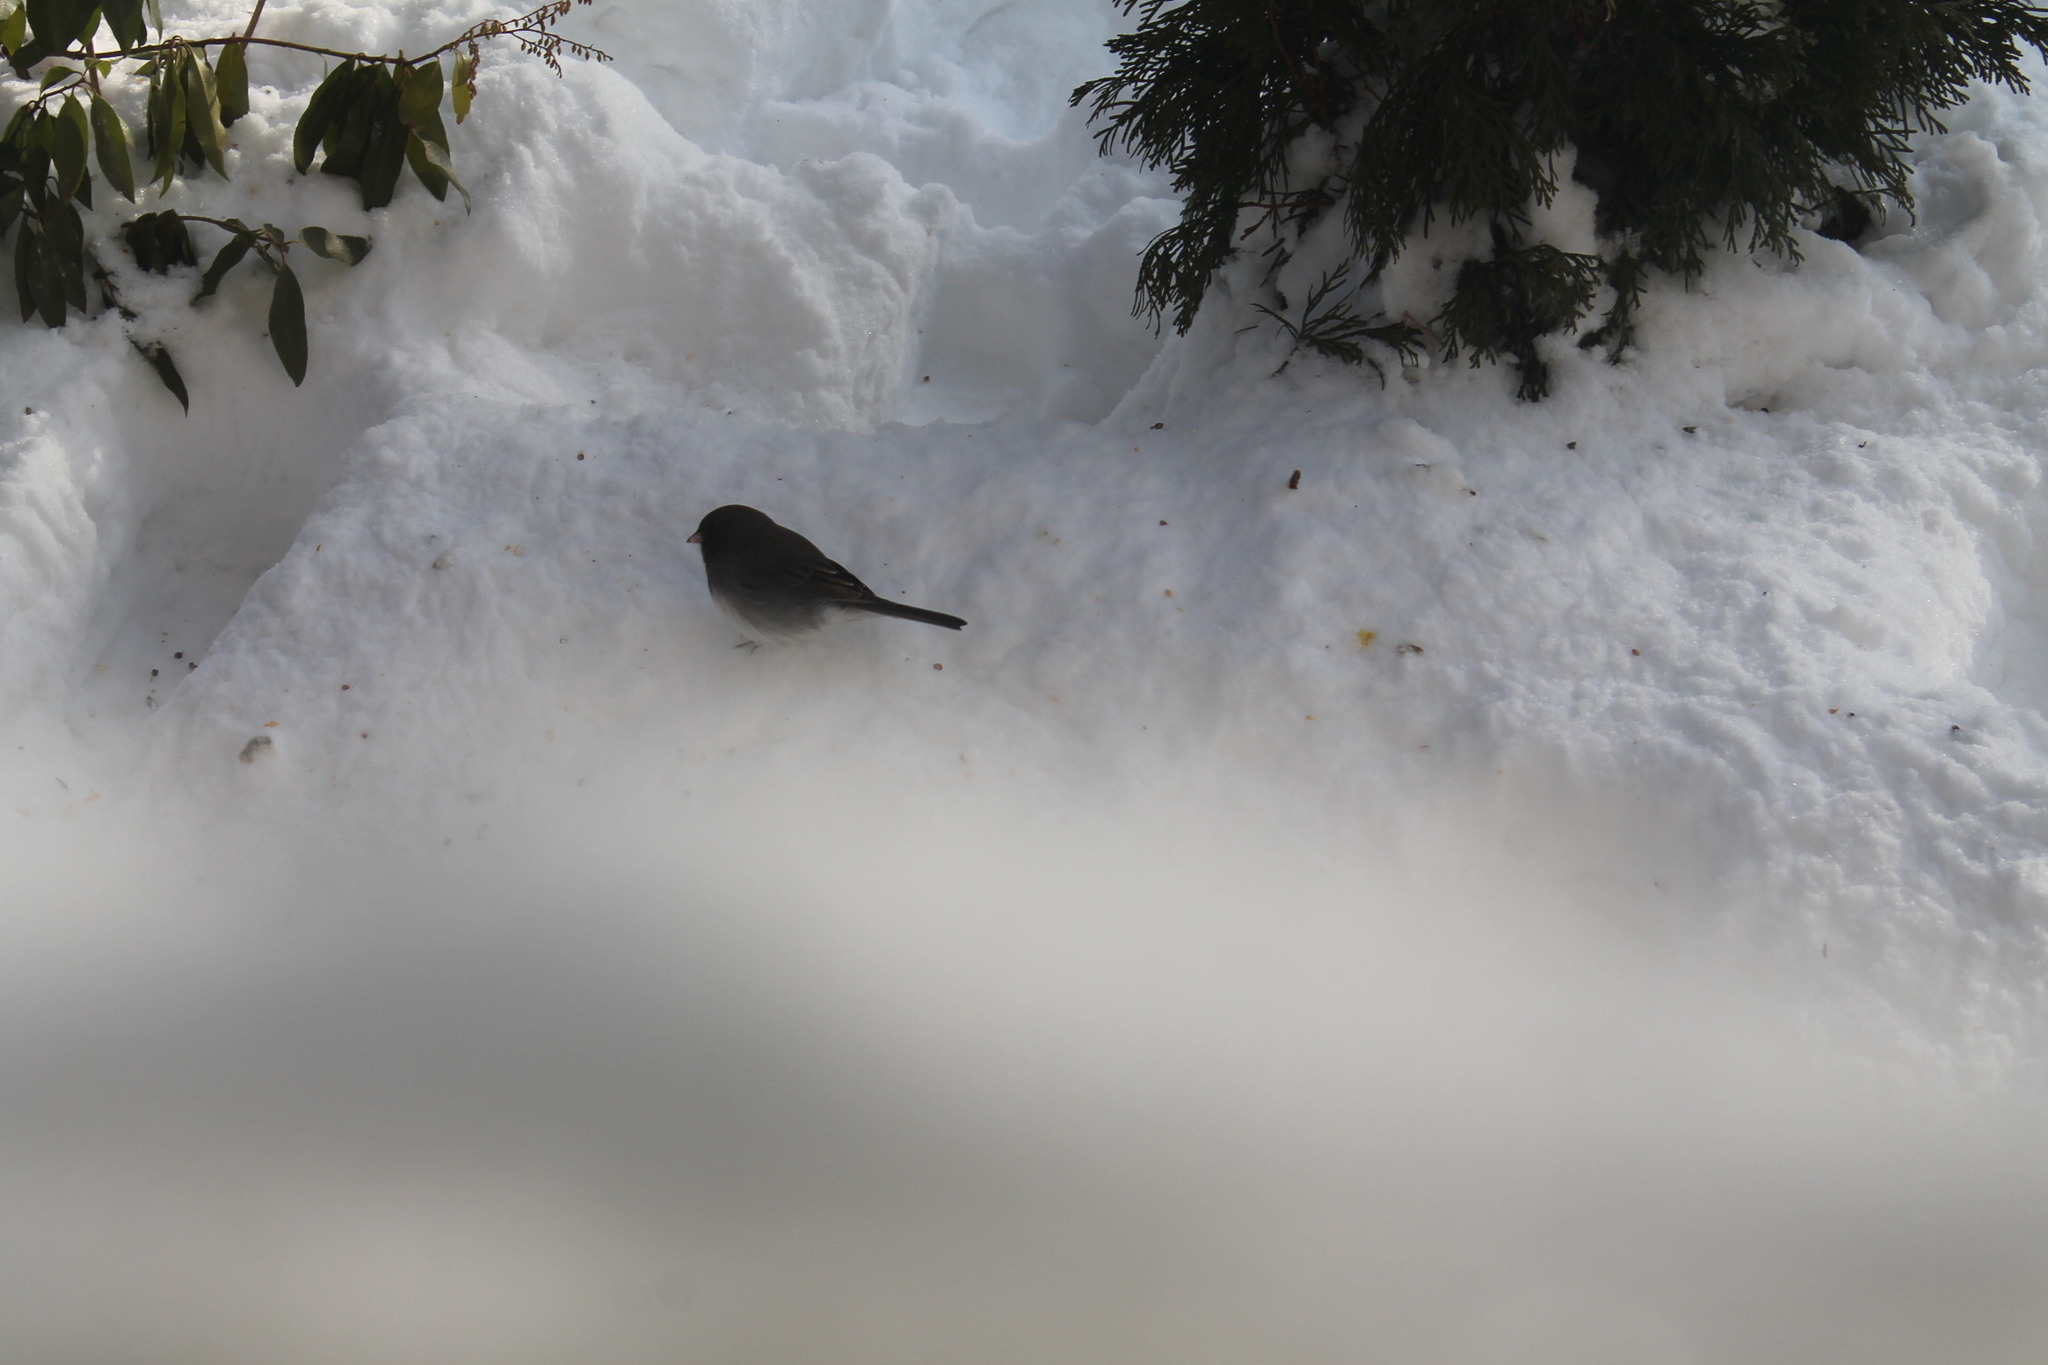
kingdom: Animalia
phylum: Chordata
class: Aves
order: Passeriformes
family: Passerellidae
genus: Junco
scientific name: Junco hyemalis
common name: Dark-eyed junco
